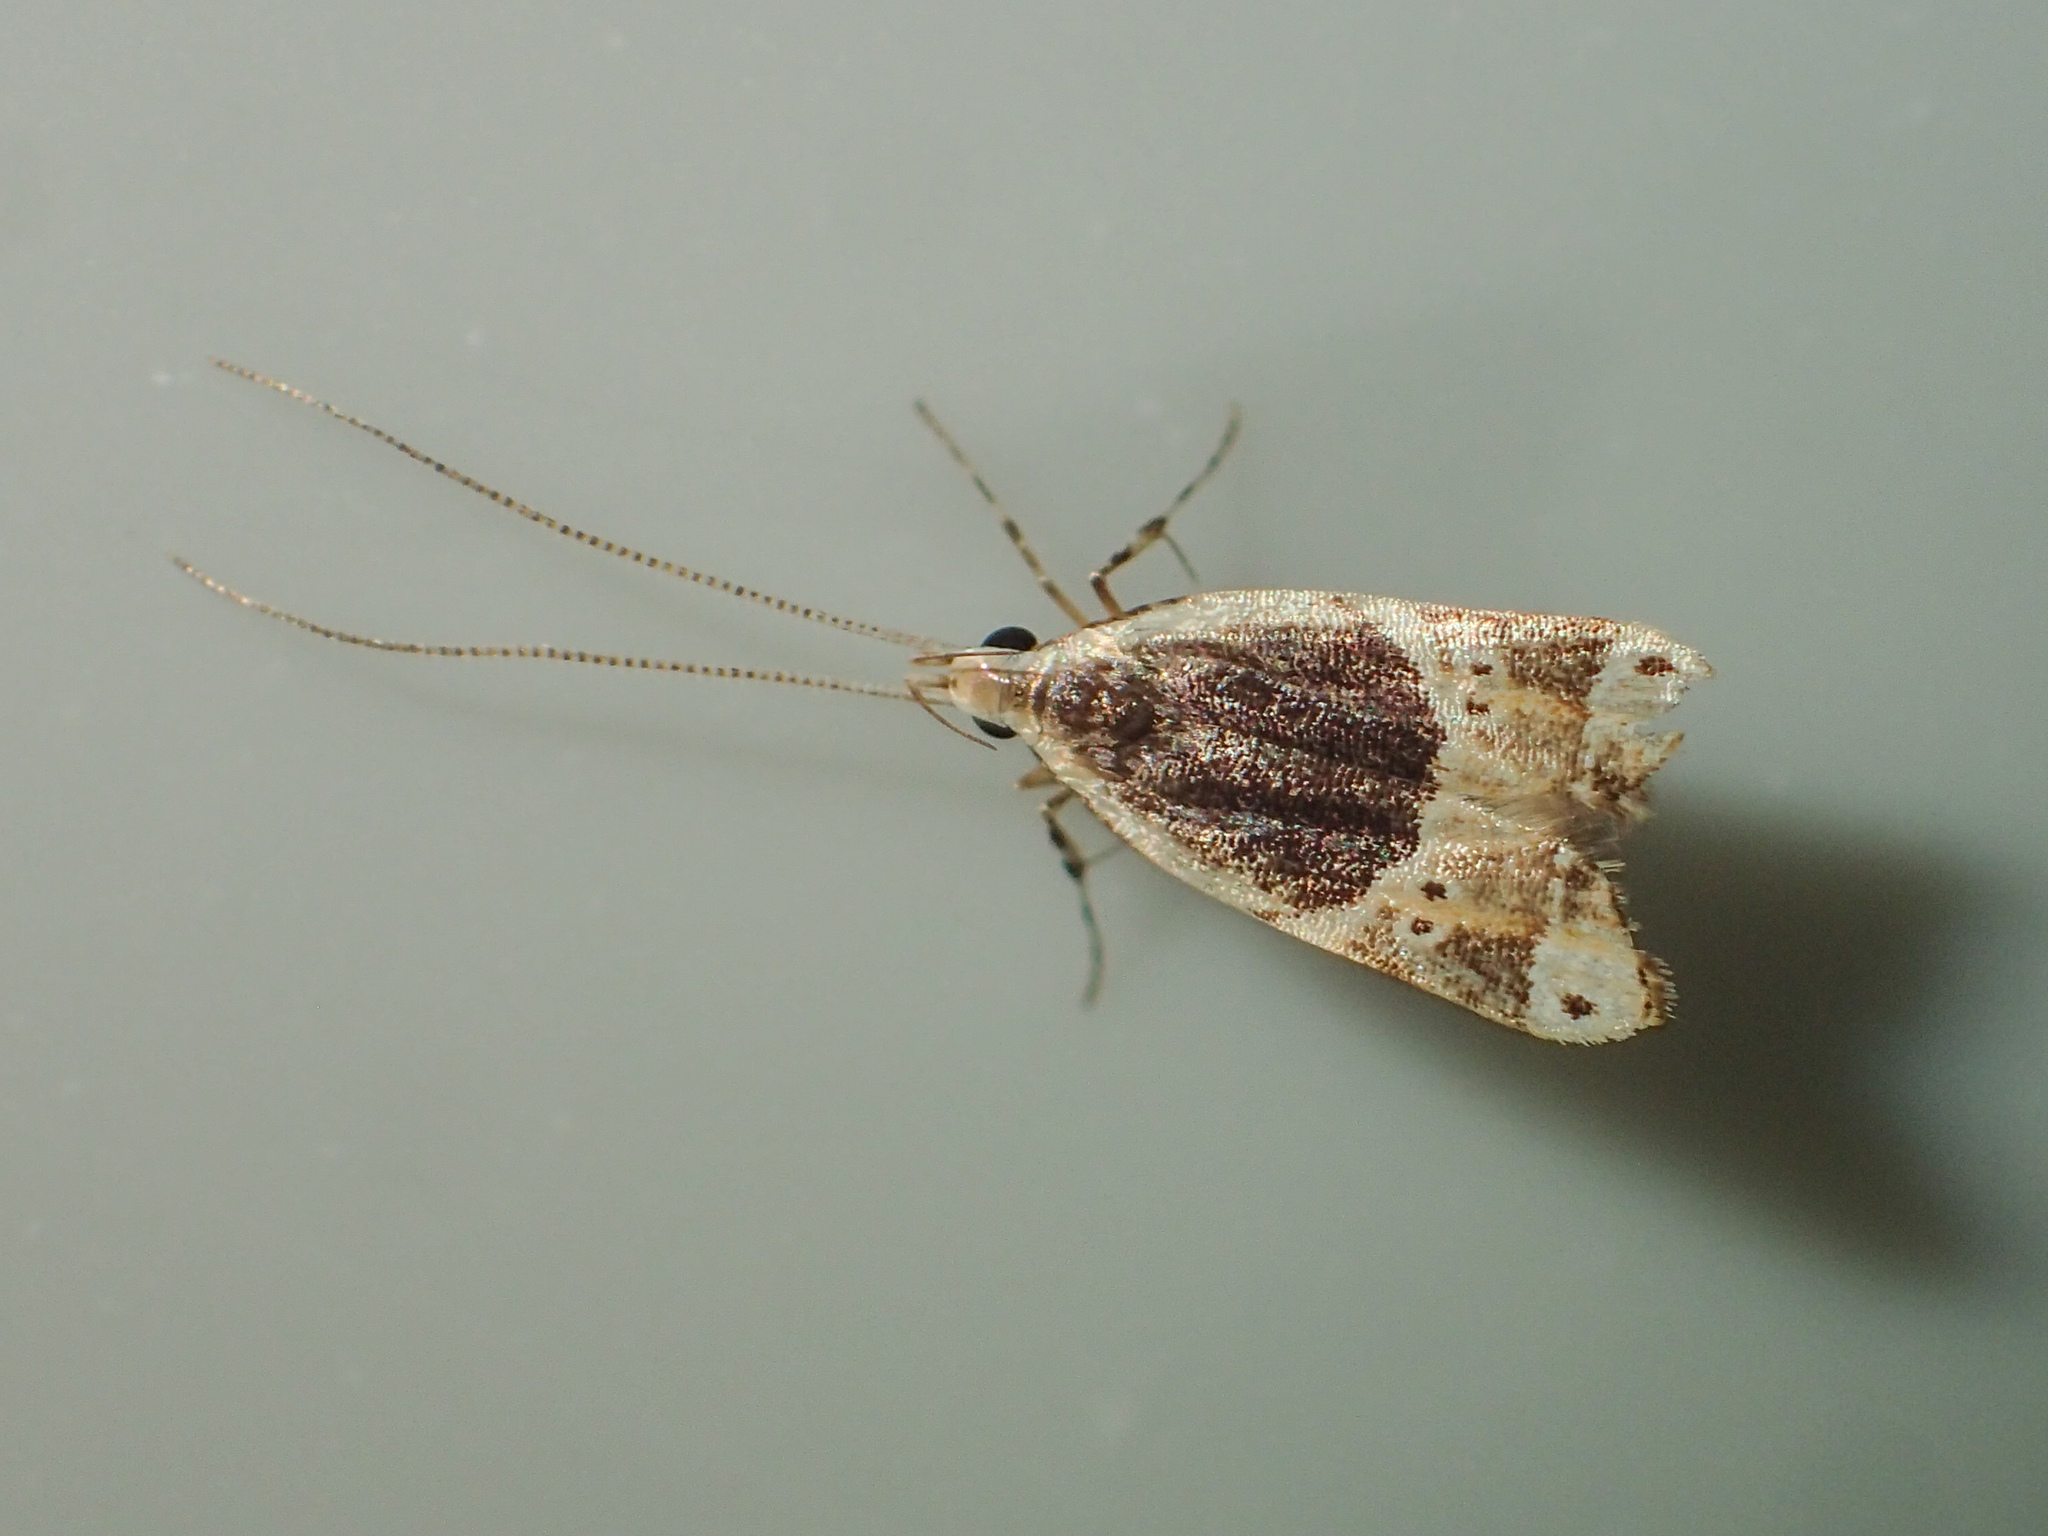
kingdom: Animalia
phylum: Arthropoda
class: Insecta
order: Lepidoptera
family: Lecithoceridae
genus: Anaxyrina
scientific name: Anaxyrina albicostalis
